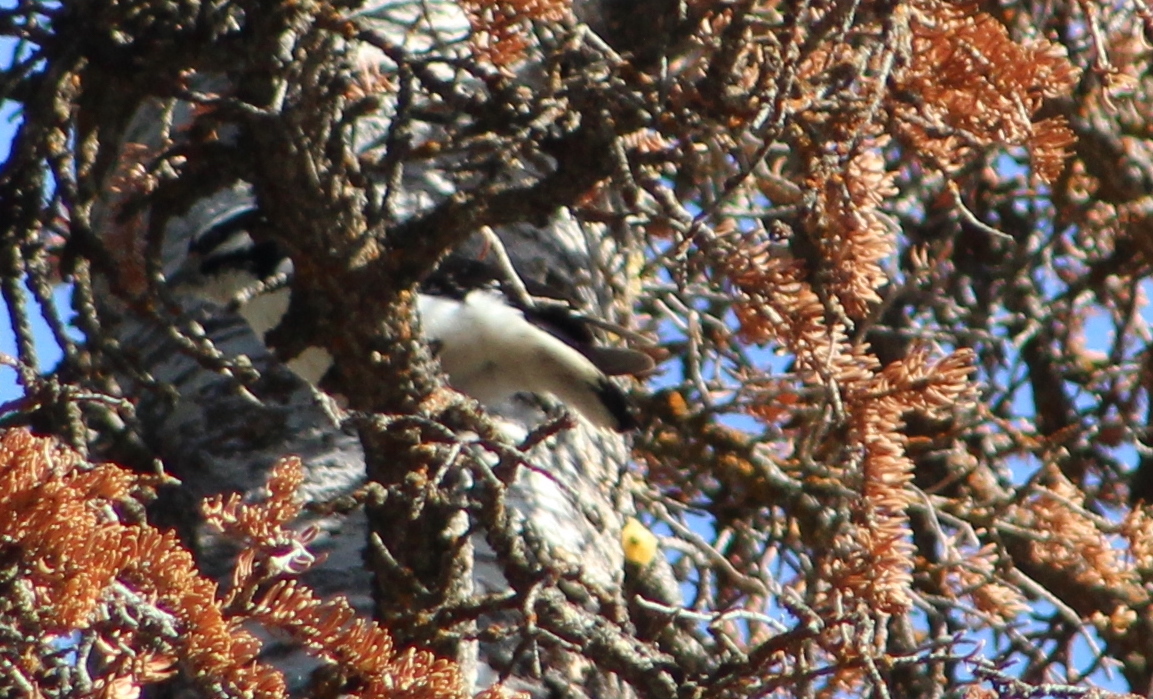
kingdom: Animalia
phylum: Chordata
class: Aves
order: Piciformes
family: Picidae
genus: Leuconotopicus
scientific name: Leuconotopicus villosus
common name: Hairy woodpecker
